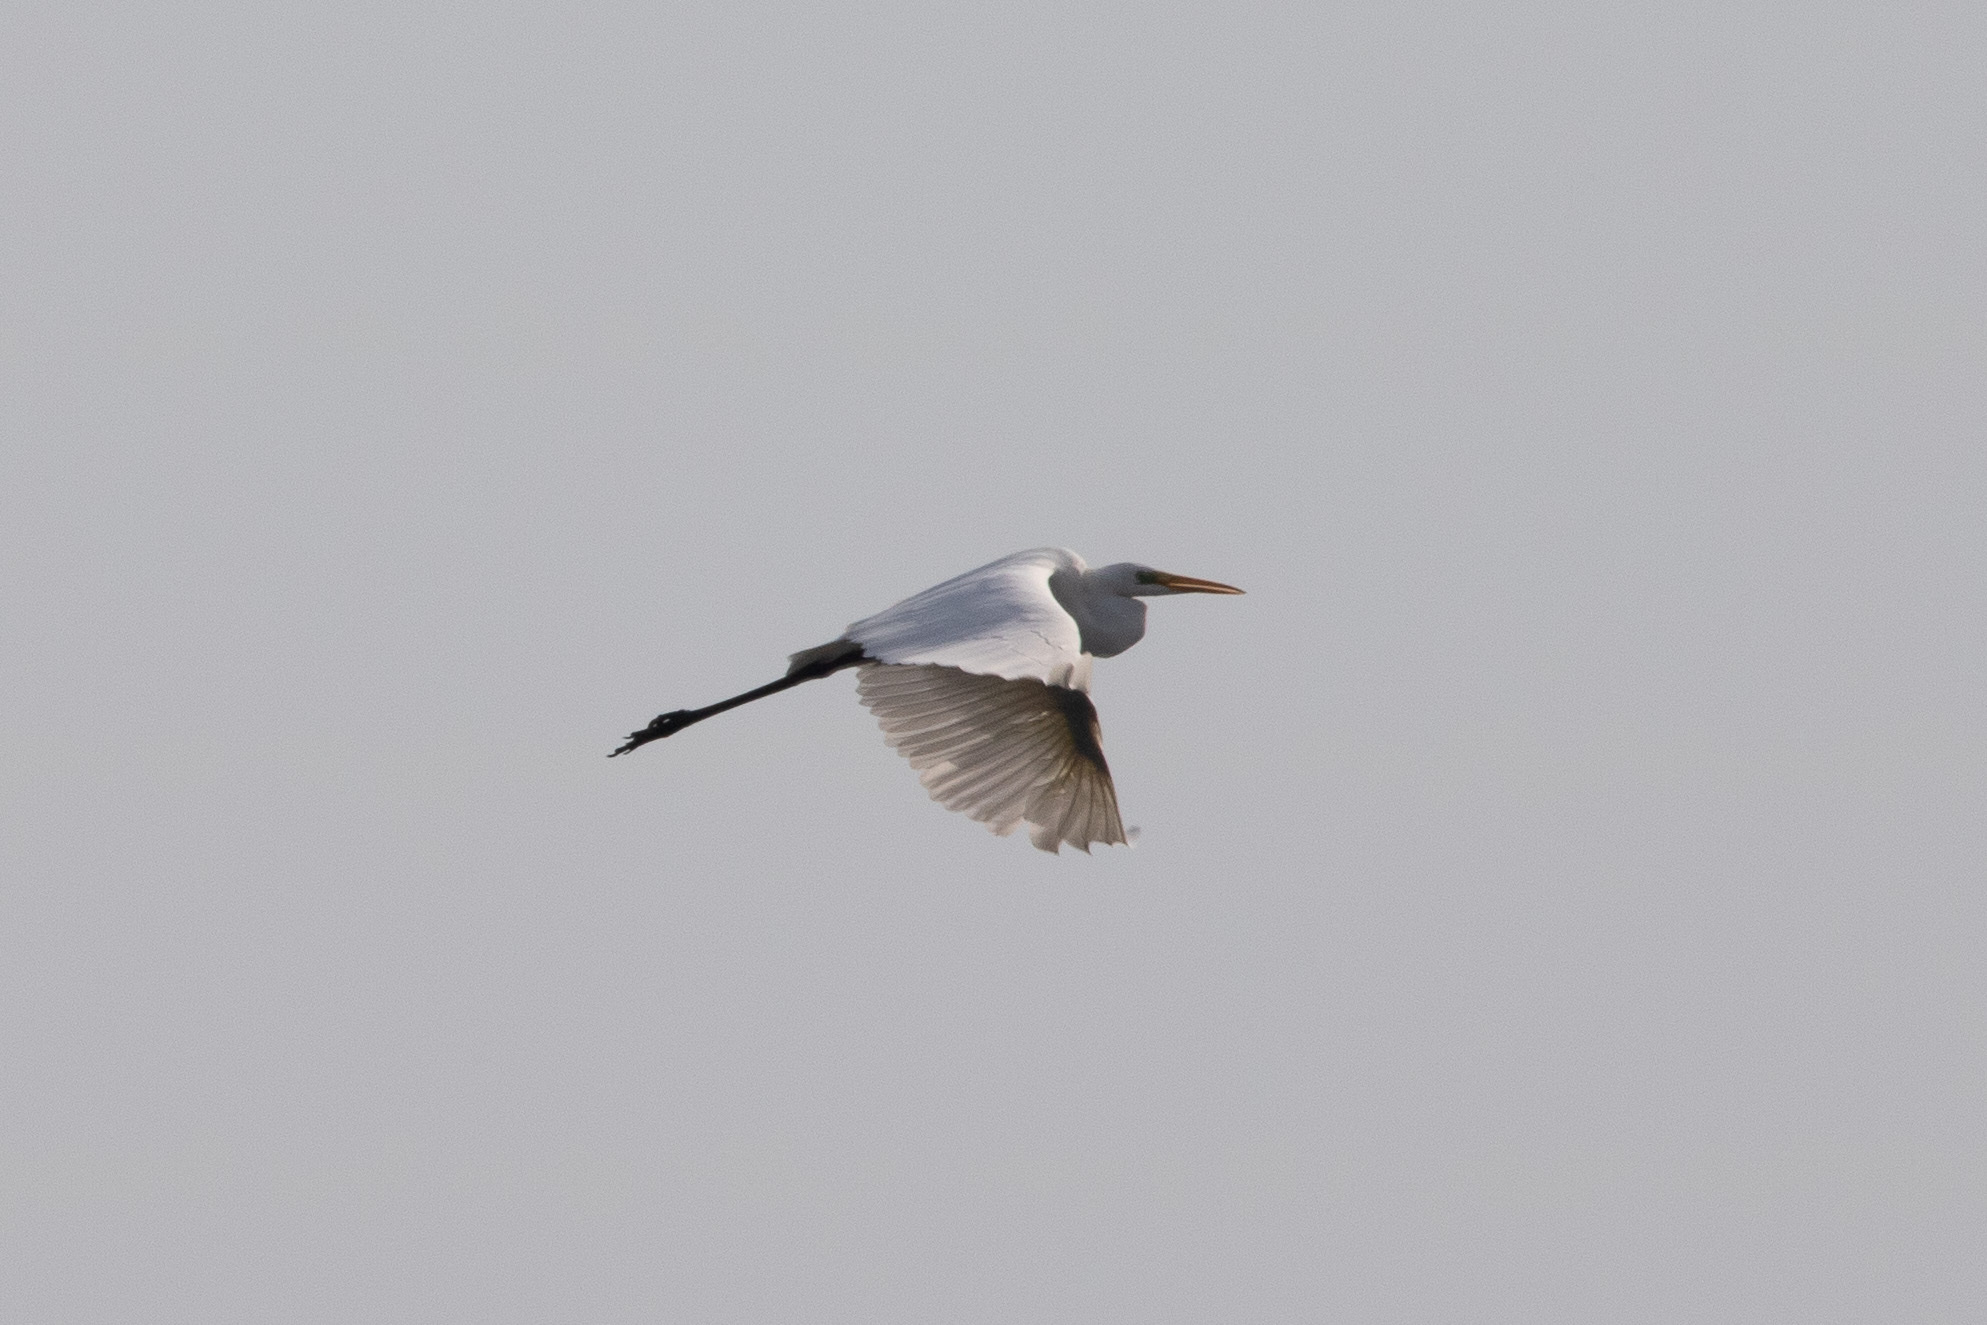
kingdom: Animalia
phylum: Chordata
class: Aves
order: Pelecaniformes
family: Ardeidae
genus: Ardea
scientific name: Ardea alba
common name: Great egret
